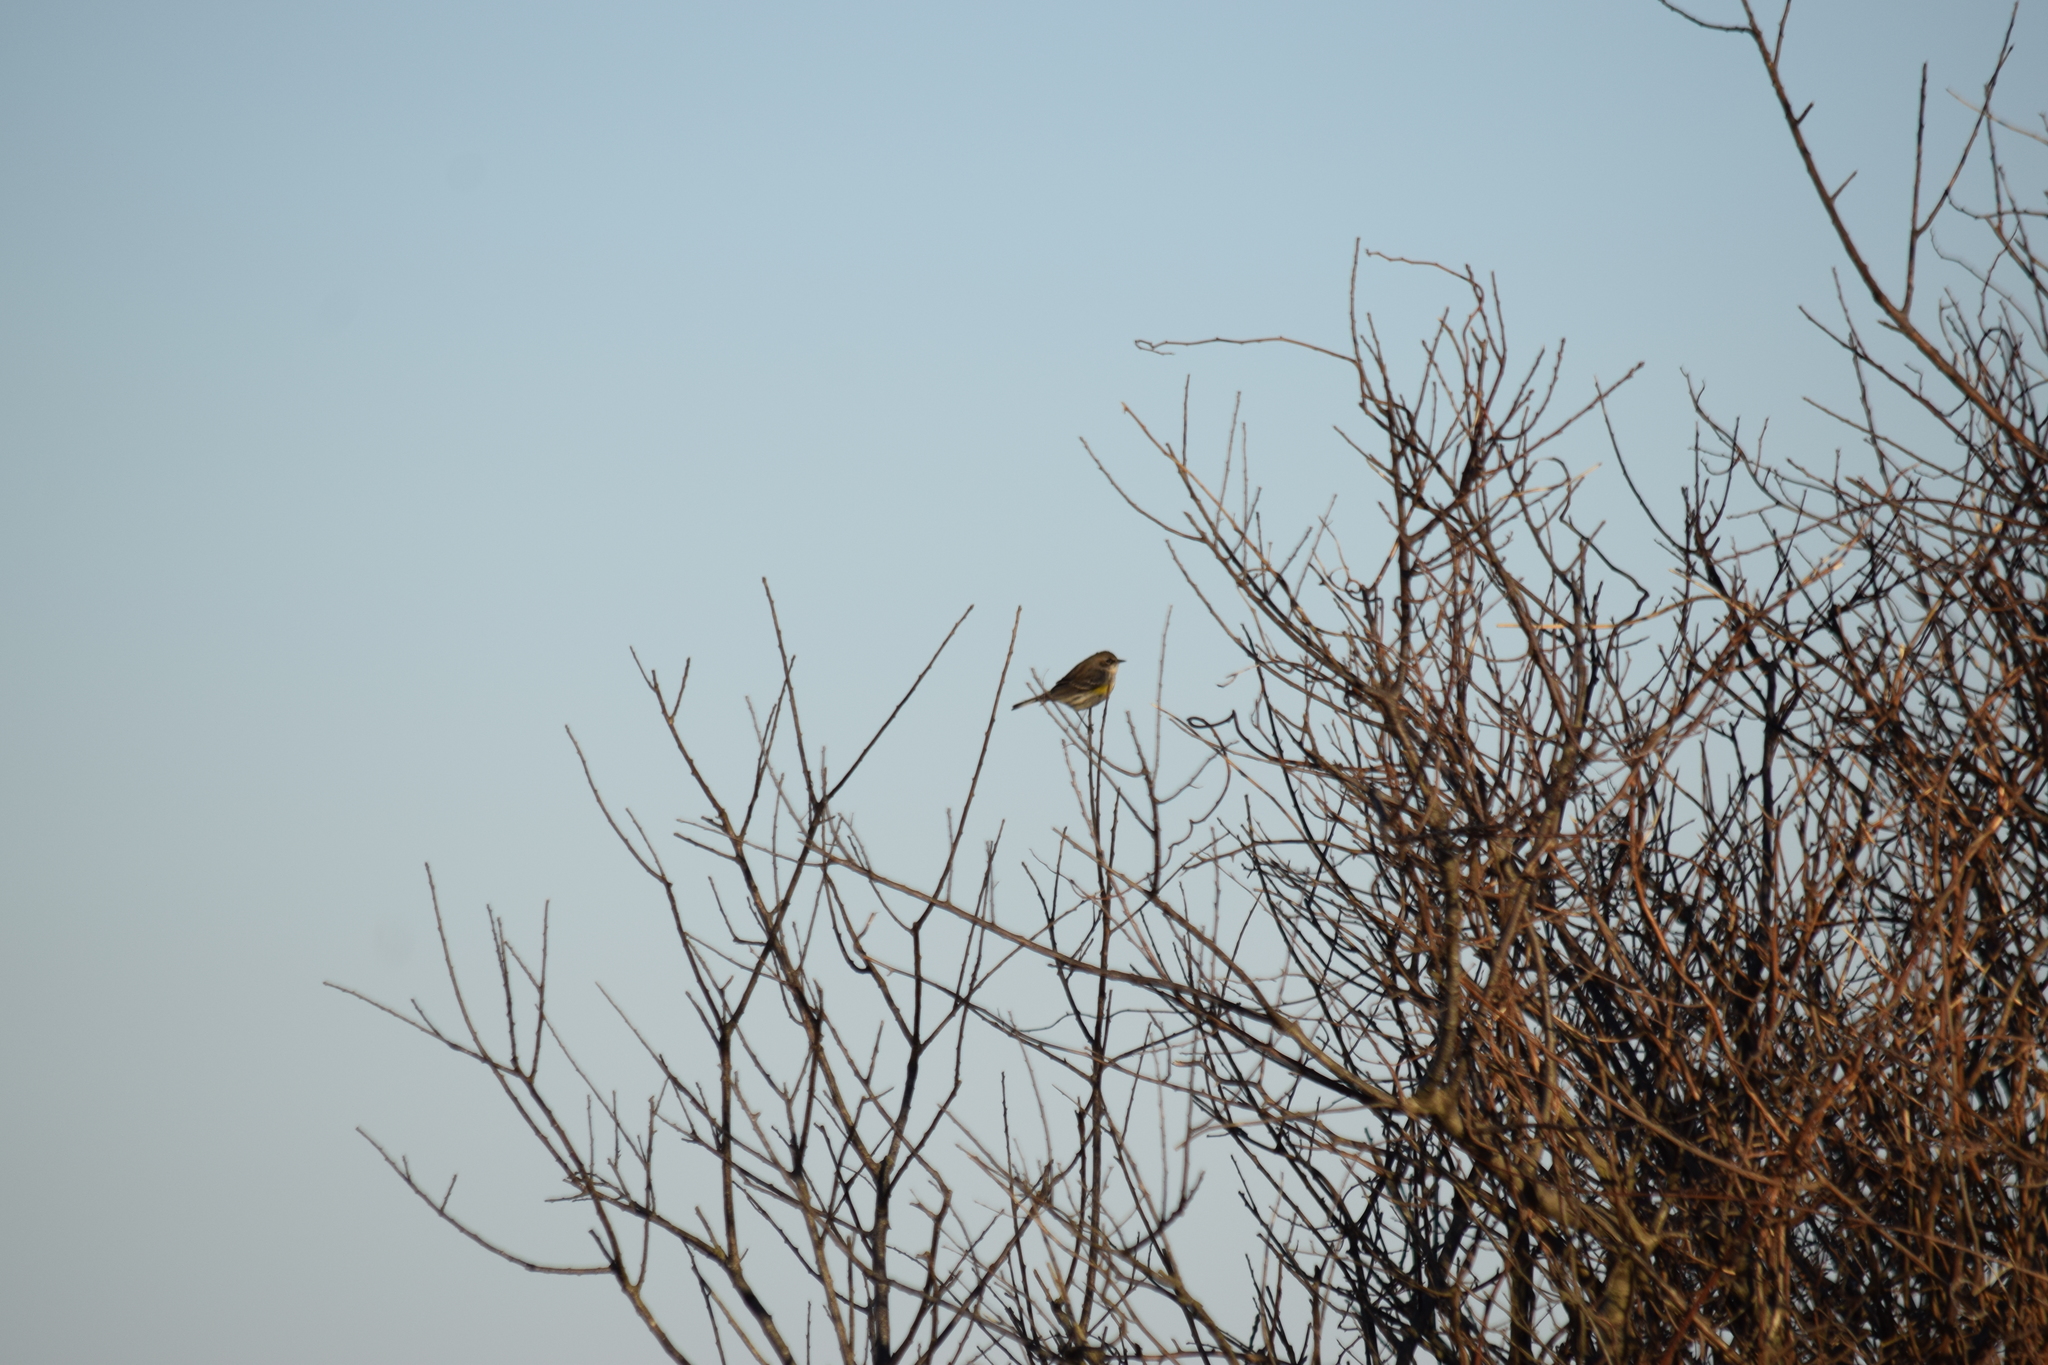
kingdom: Animalia
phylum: Chordata
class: Aves
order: Passeriformes
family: Parulidae
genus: Setophaga
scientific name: Setophaga coronata
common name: Myrtle warbler
